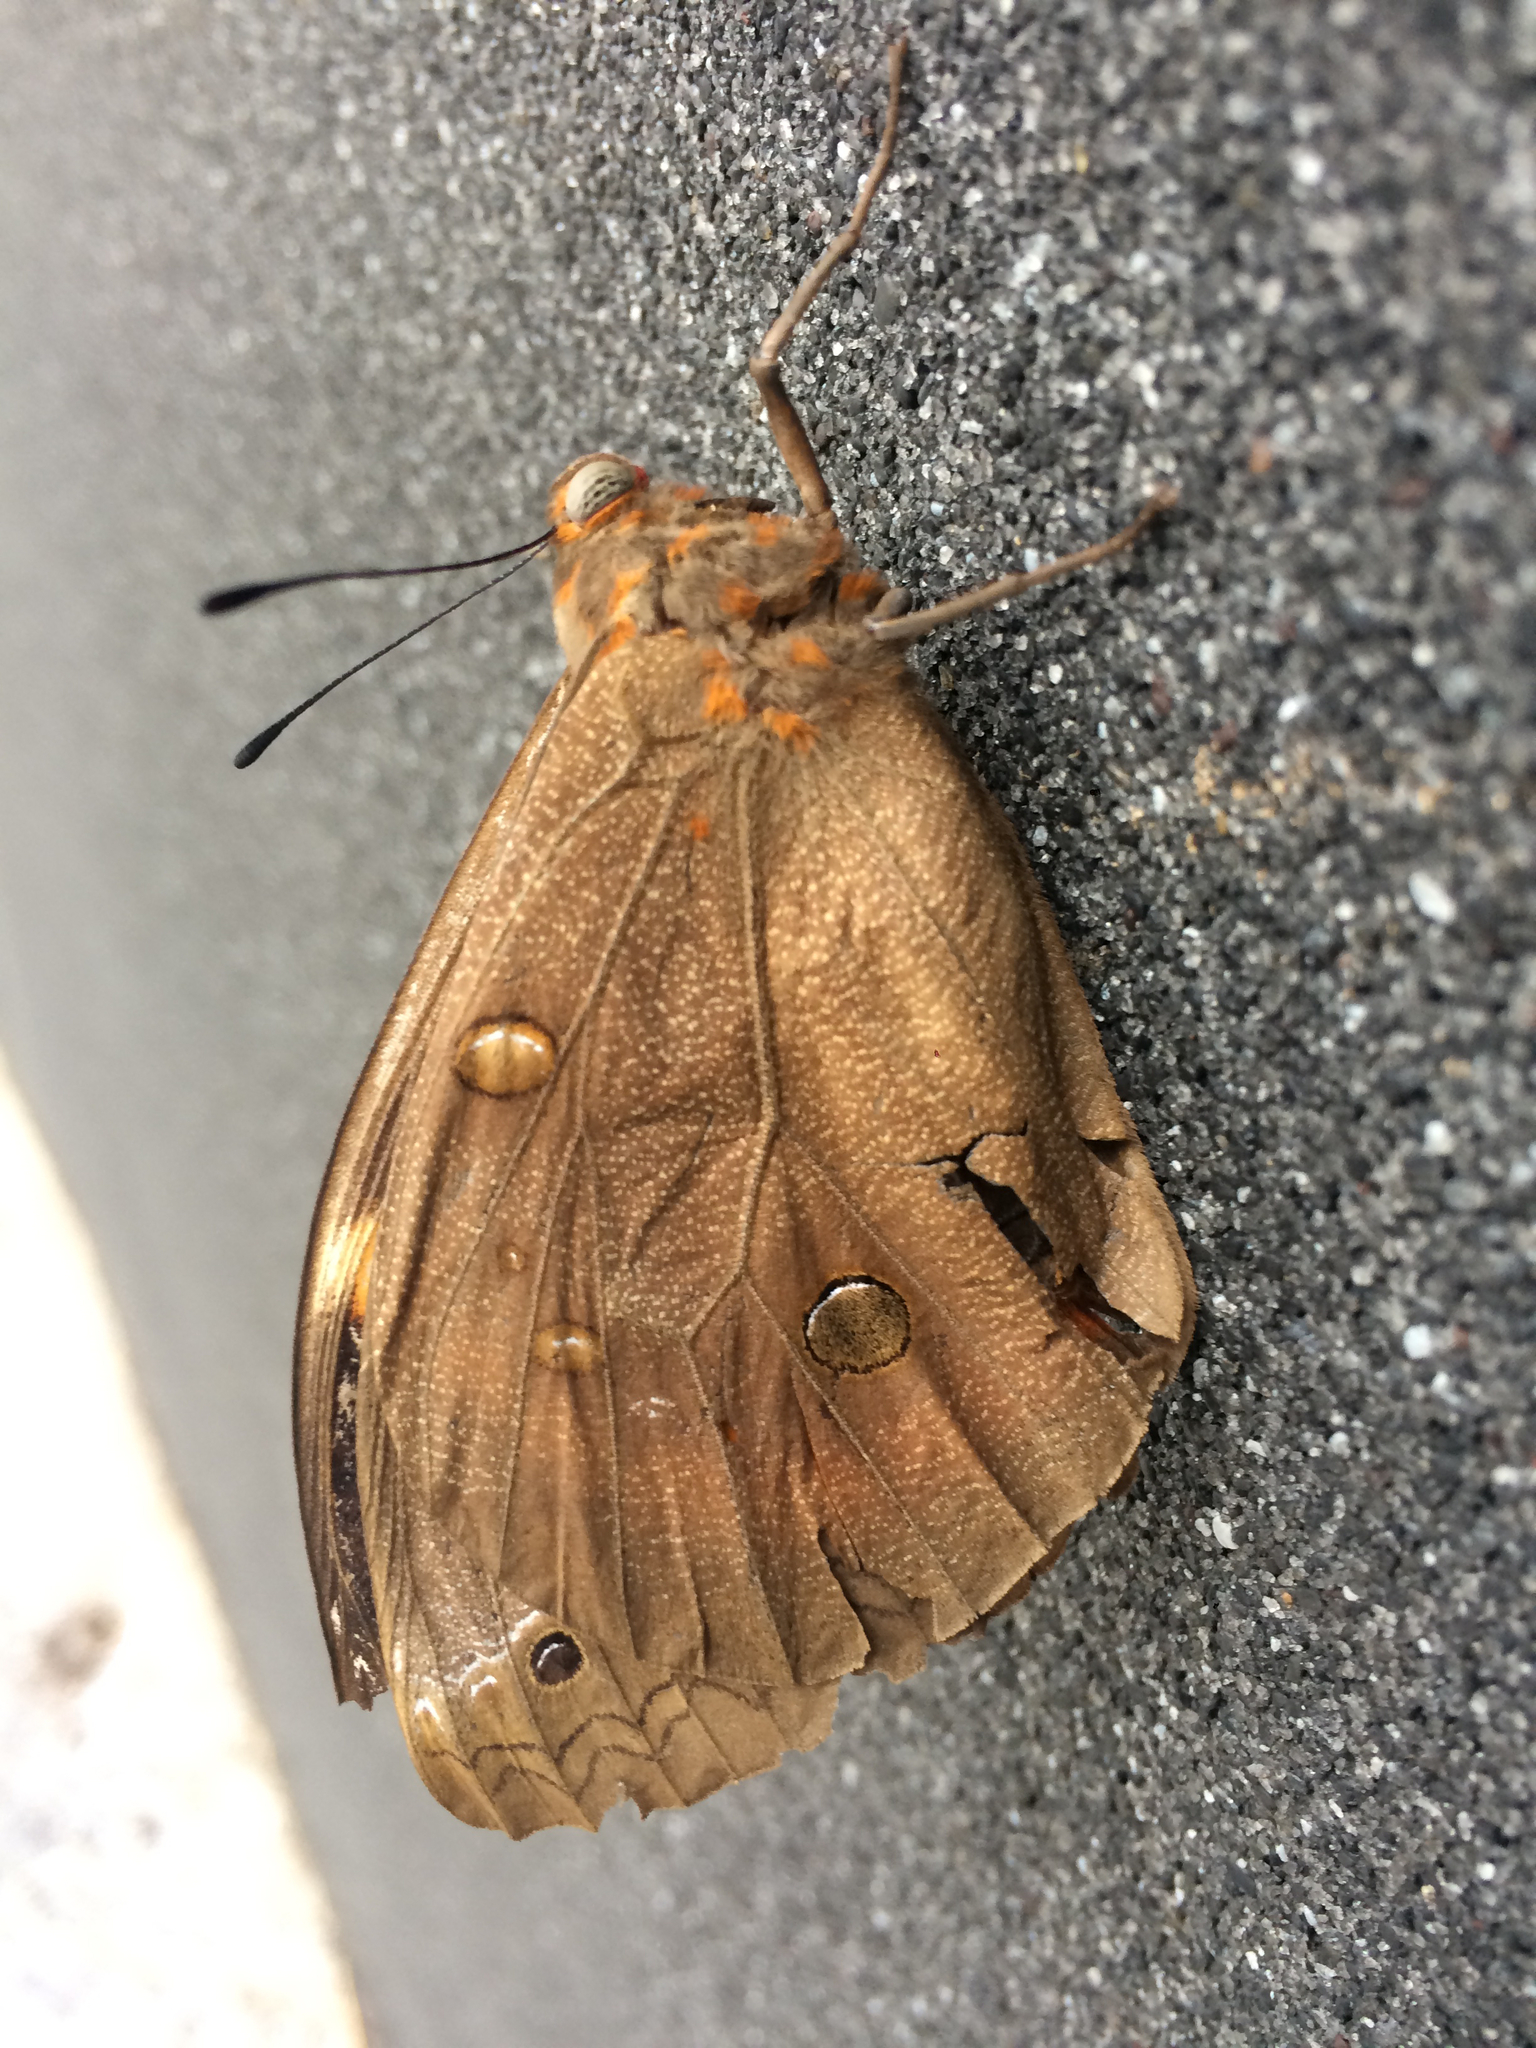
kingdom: Animalia
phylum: Arthropoda
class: Insecta
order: Lepidoptera
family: Nymphalidae
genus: Brassolis
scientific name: Brassolis sophorae
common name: Coconut caterpillar
